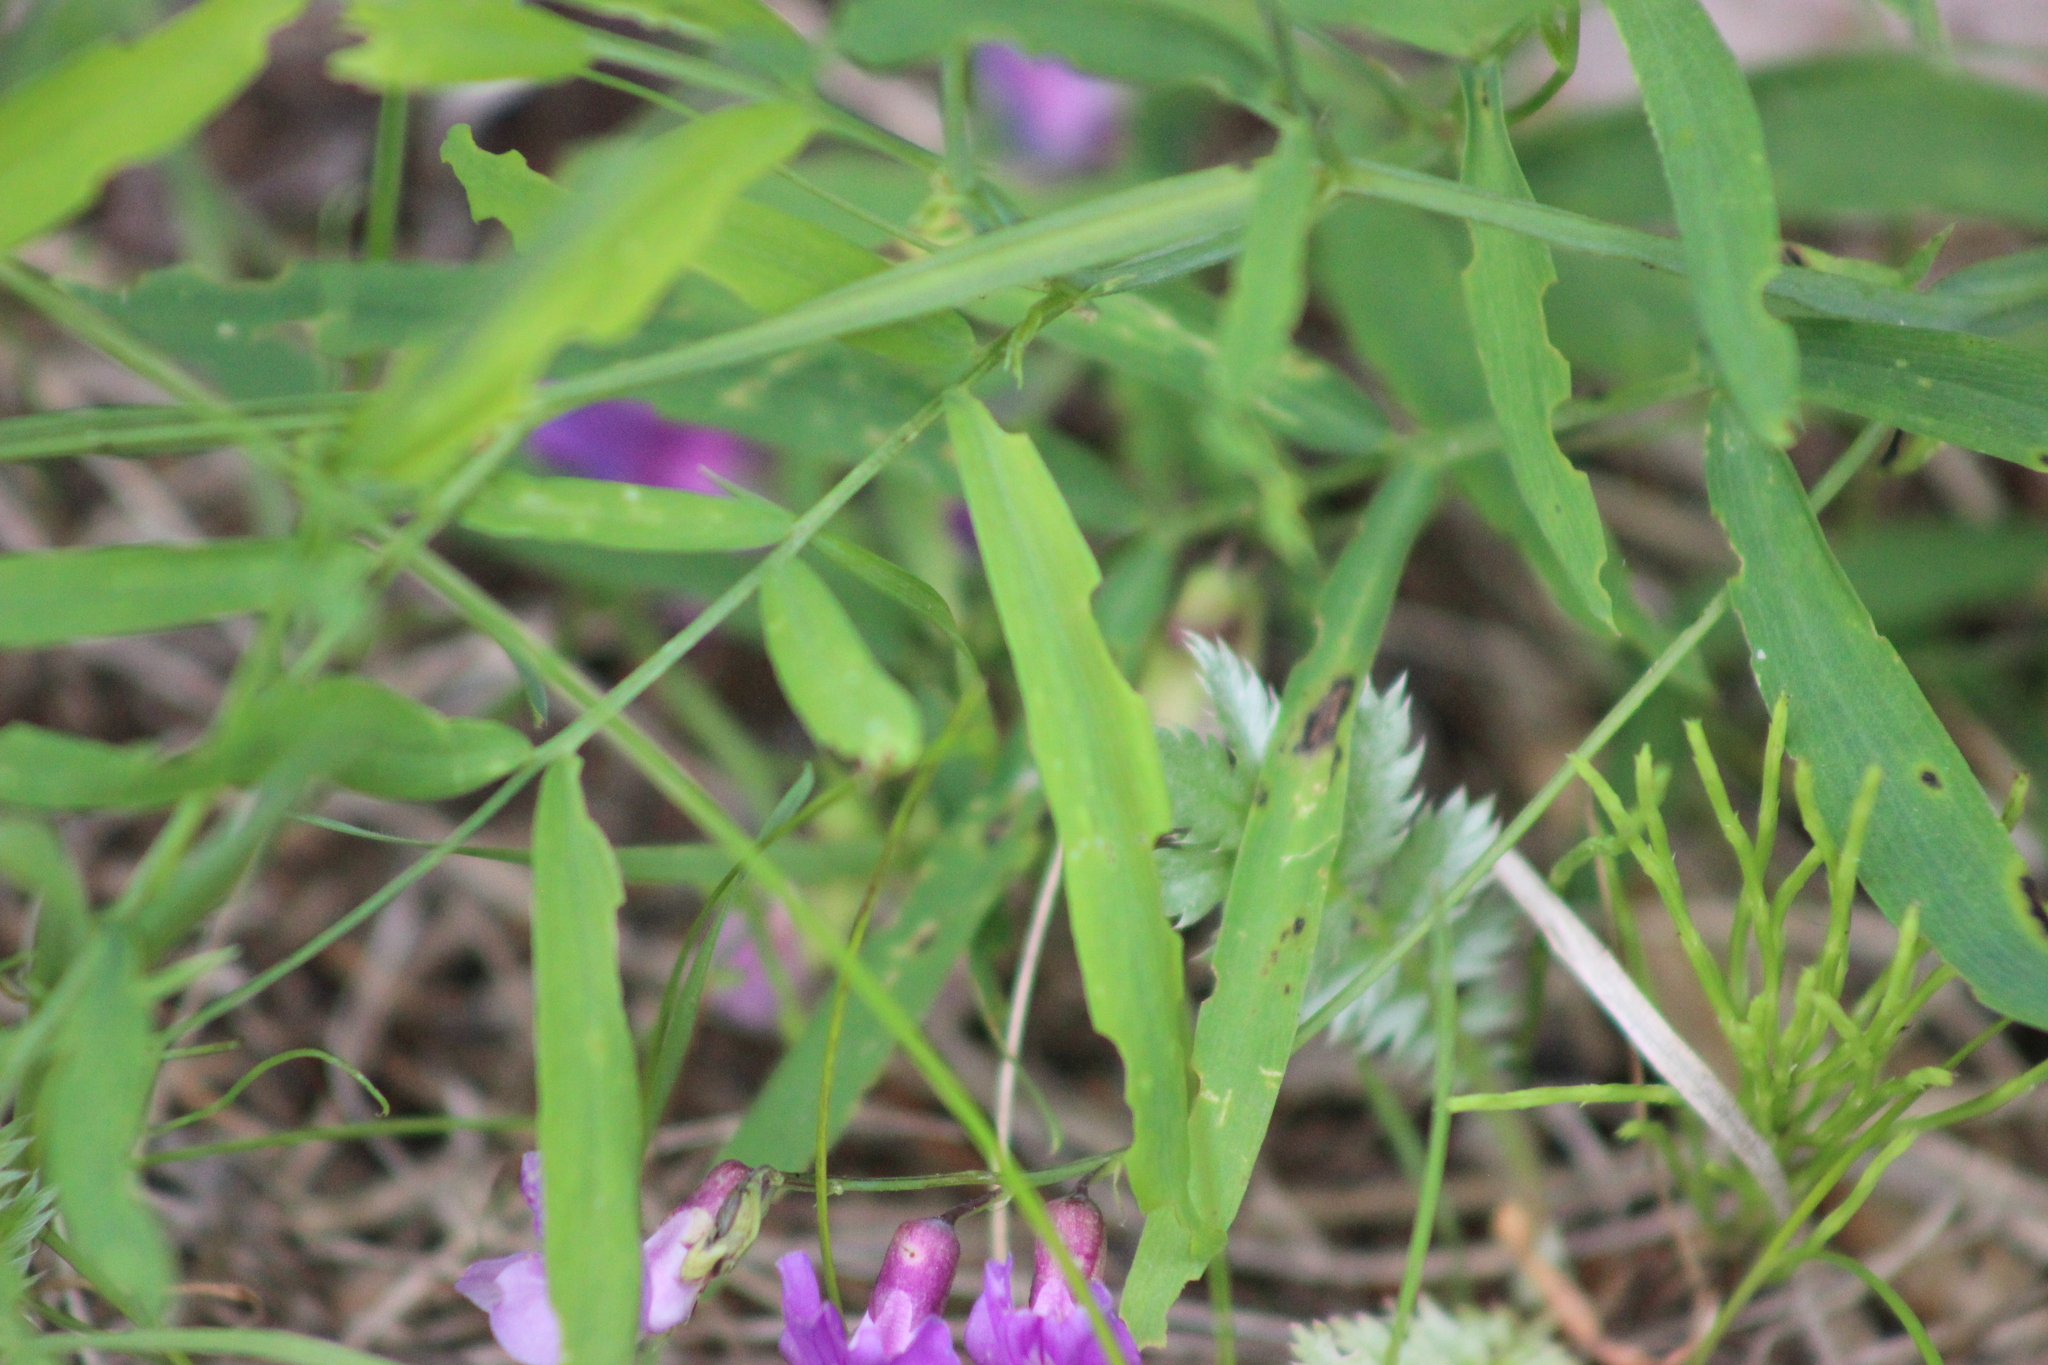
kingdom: Plantae
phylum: Tracheophyta
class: Magnoliopsida
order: Fabales
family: Fabaceae
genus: Lathyrus
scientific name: Lathyrus palustris
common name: Marsh pea
